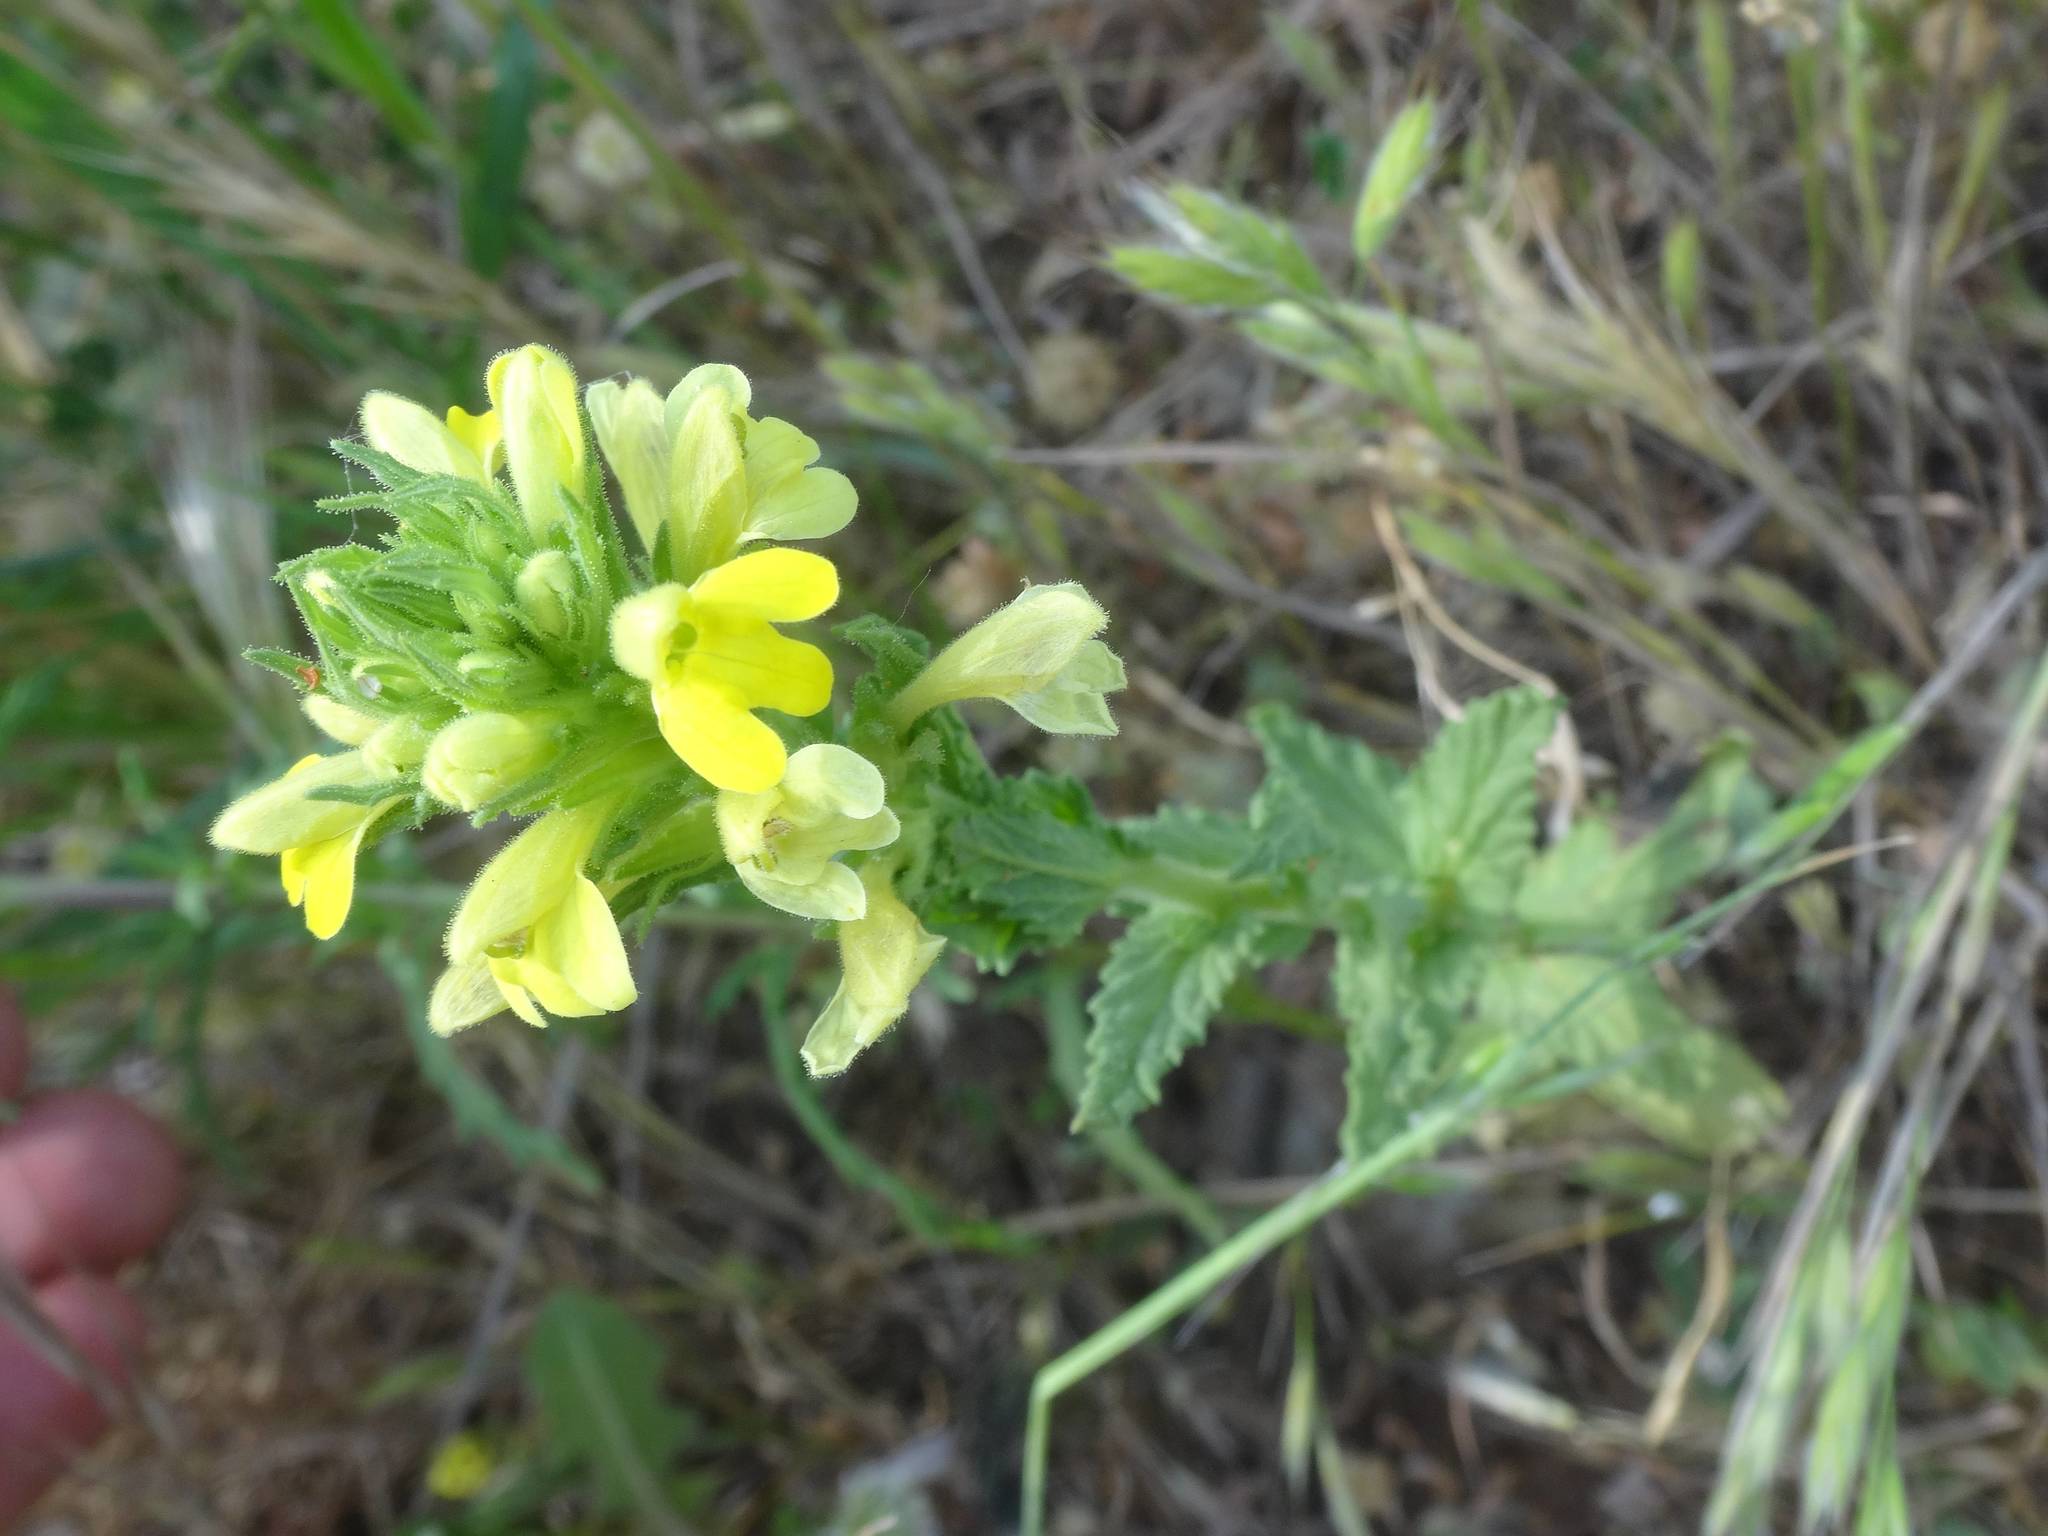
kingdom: Plantae
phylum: Tracheophyta
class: Magnoliopsida
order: Lamiales
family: Orobanchaceae
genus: Bellardia
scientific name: Bellardia viscosa
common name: Sticky parentucellia
